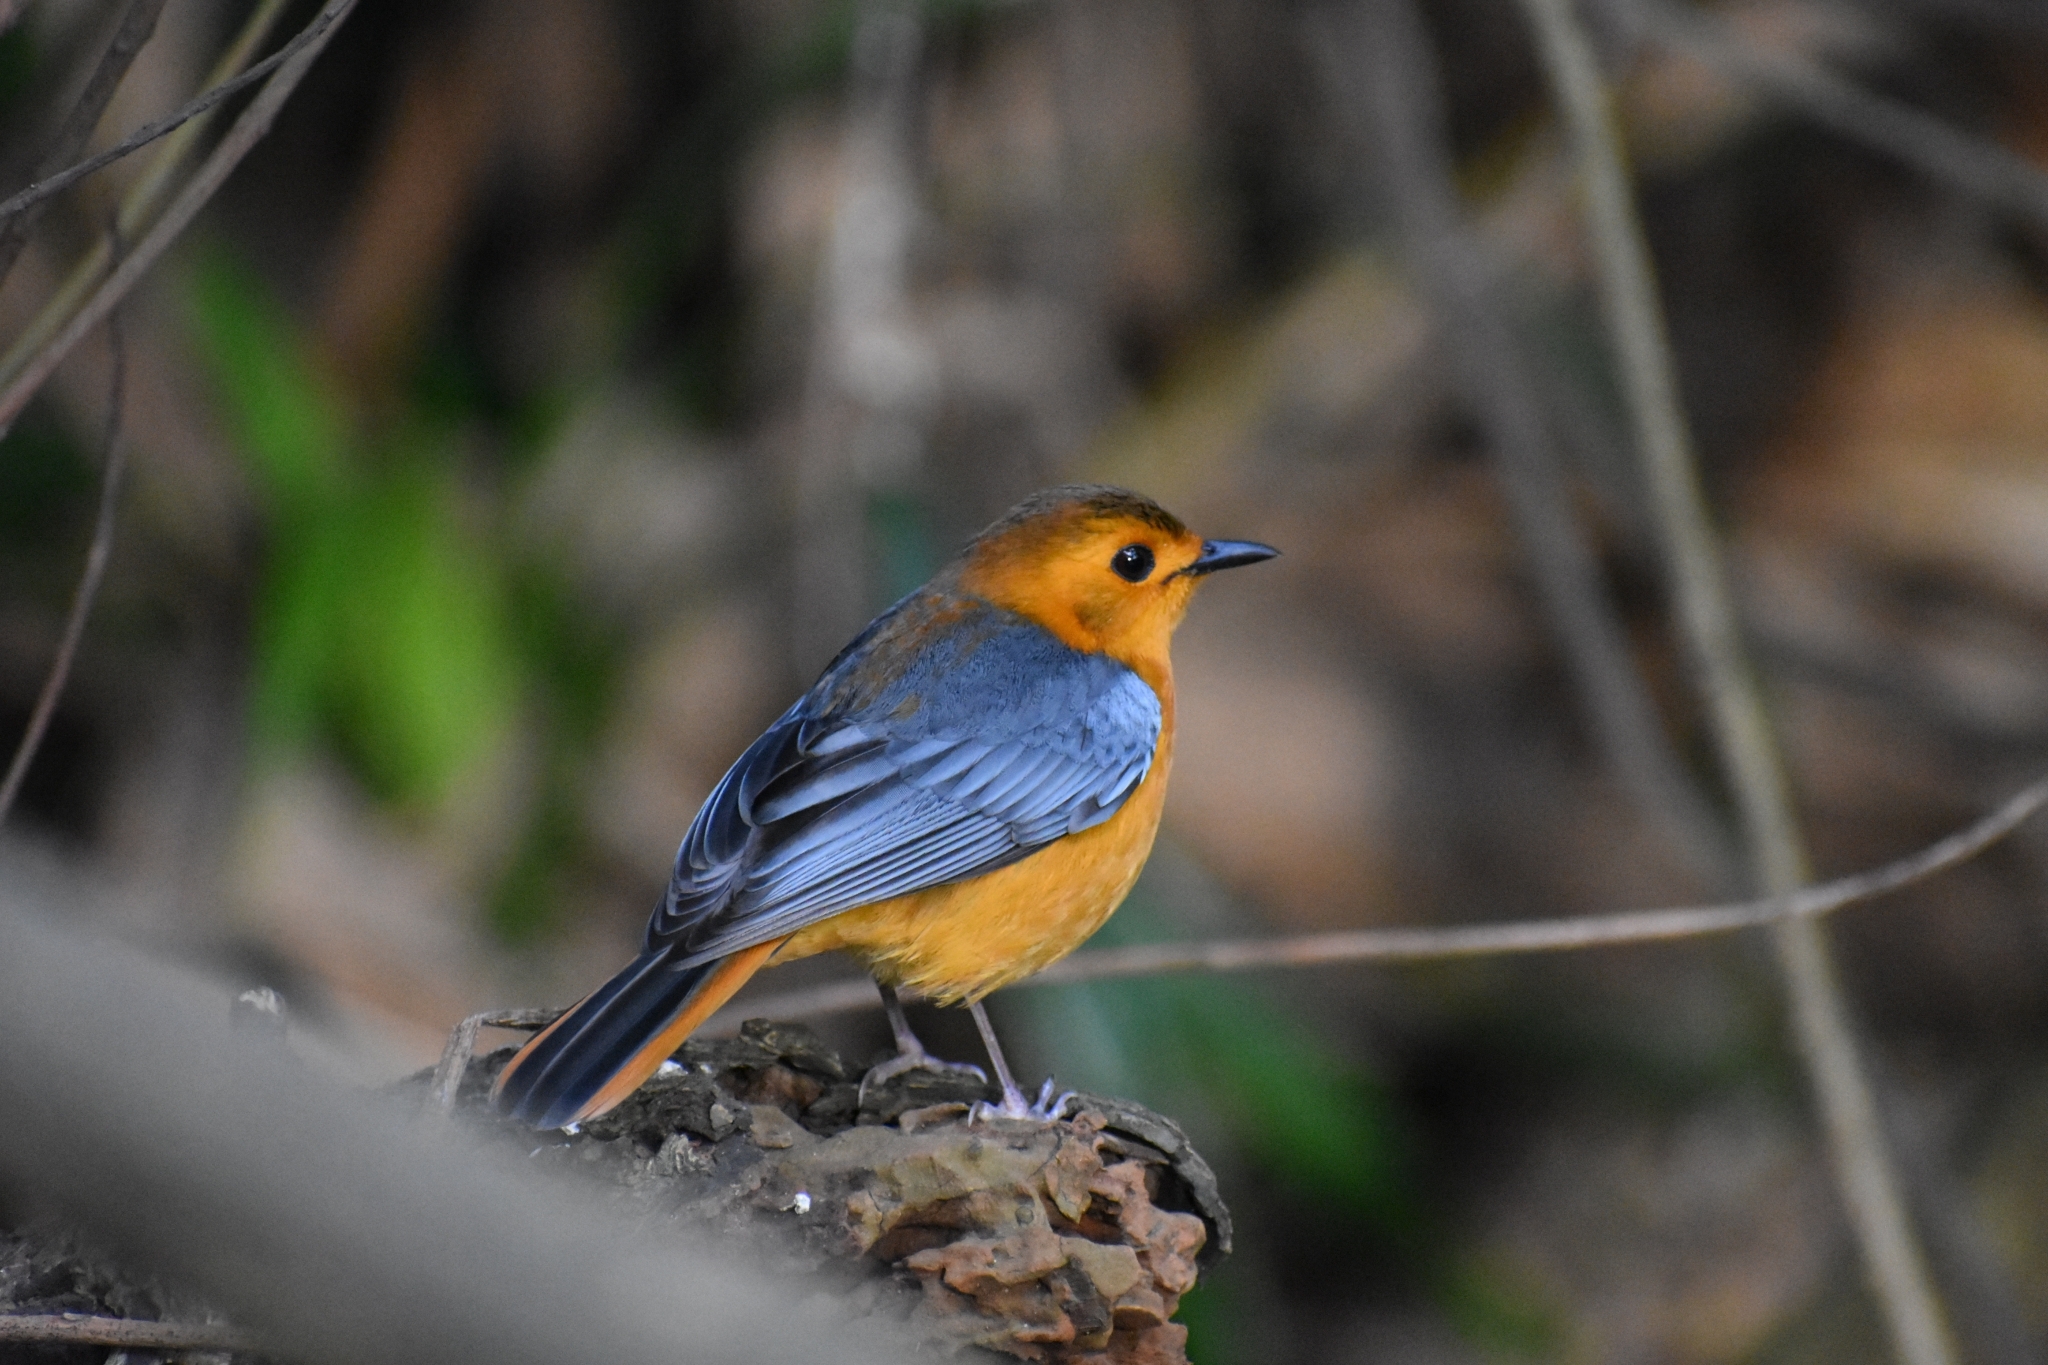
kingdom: Animalia
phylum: Chordata
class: Aves
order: Passeriformes
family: Muscicapidae
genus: Cossypha
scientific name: Cossypha natalensis
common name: Red-capped robin-chat
